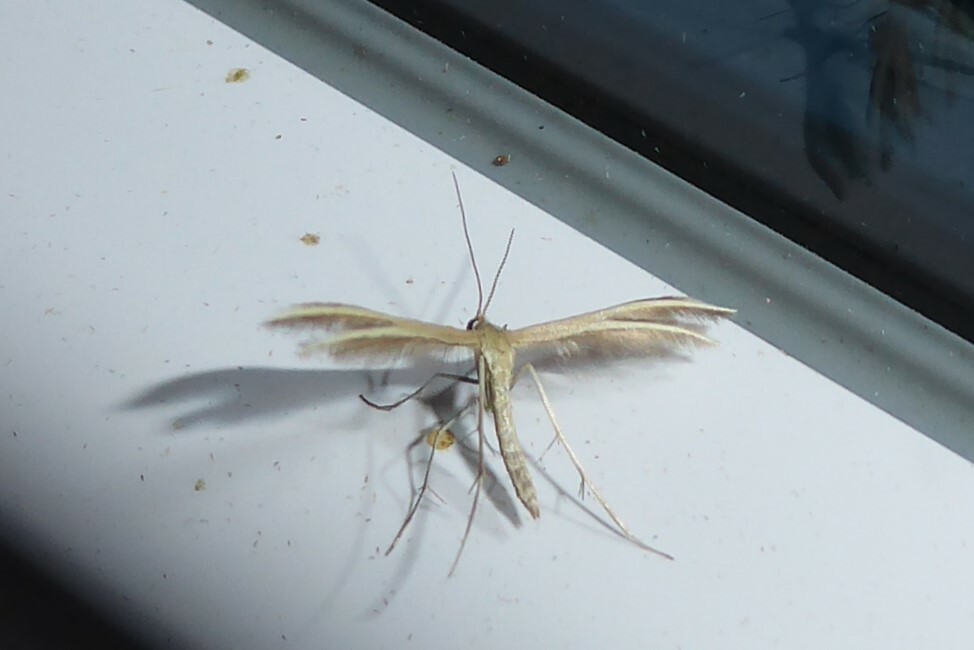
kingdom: Animalia
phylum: Arthropoda
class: Insecta
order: Lepidoptera
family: Pterophoridae
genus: Pterophorus
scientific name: Pterophorus innotatalis
